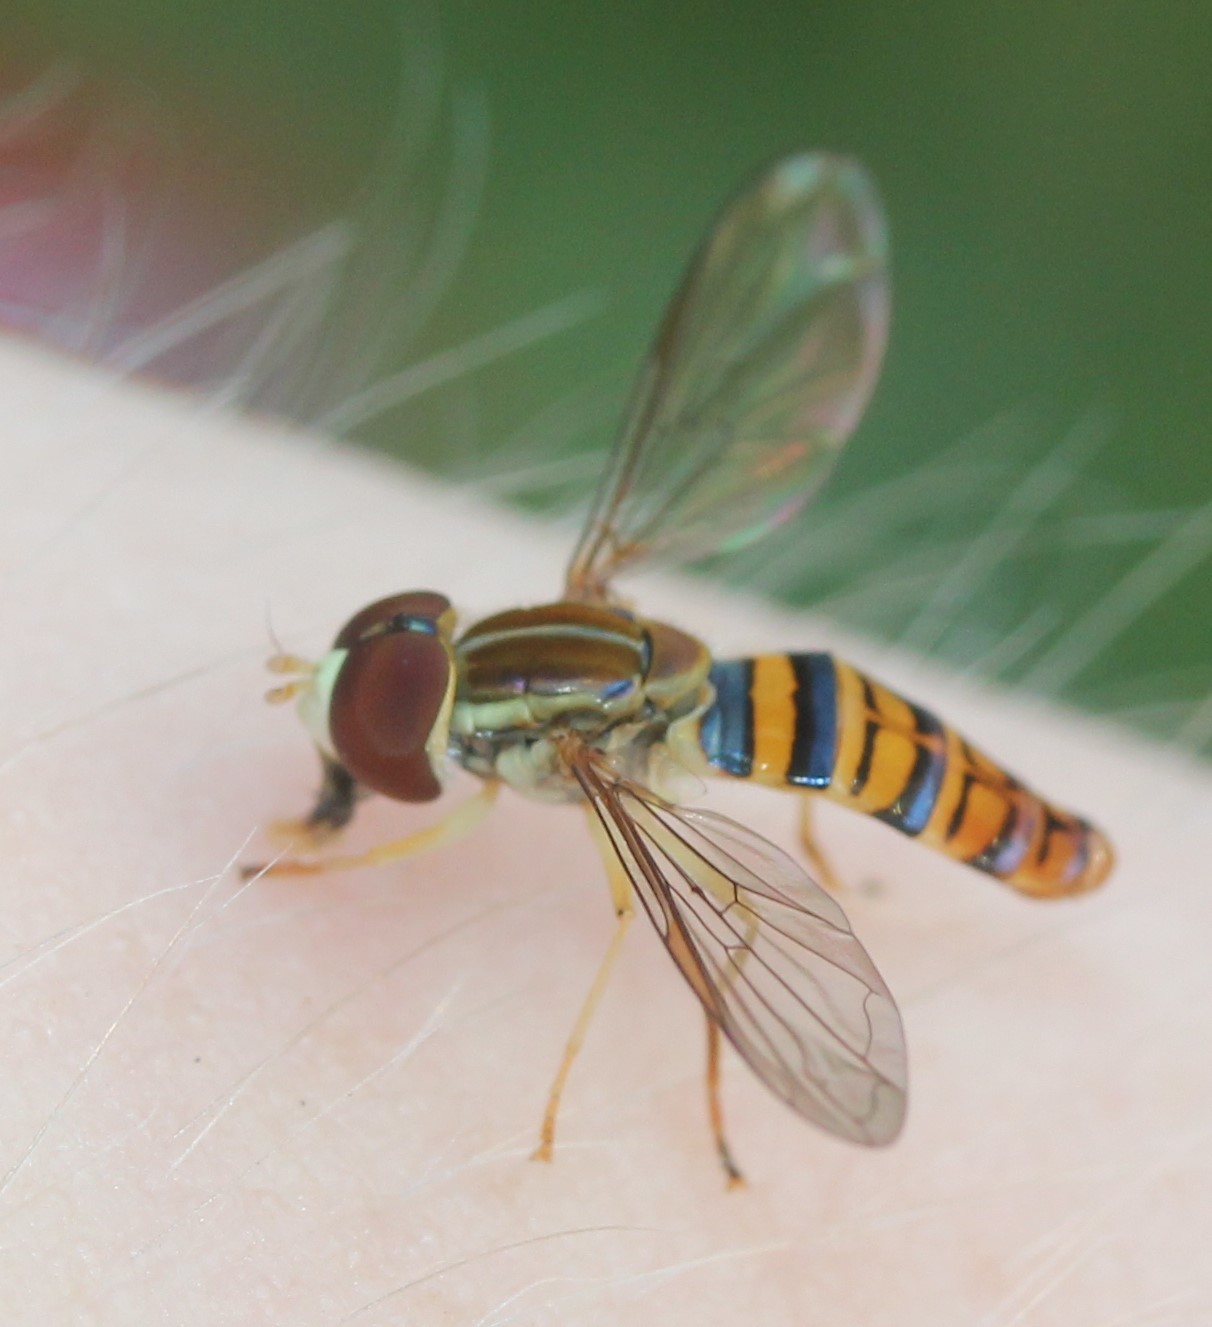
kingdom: Animalia
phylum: Arthropoda
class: Insecta
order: Diptera
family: Syrphidae
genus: Toxomerus
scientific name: Toxomerus politus
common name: Maize calligrapher
